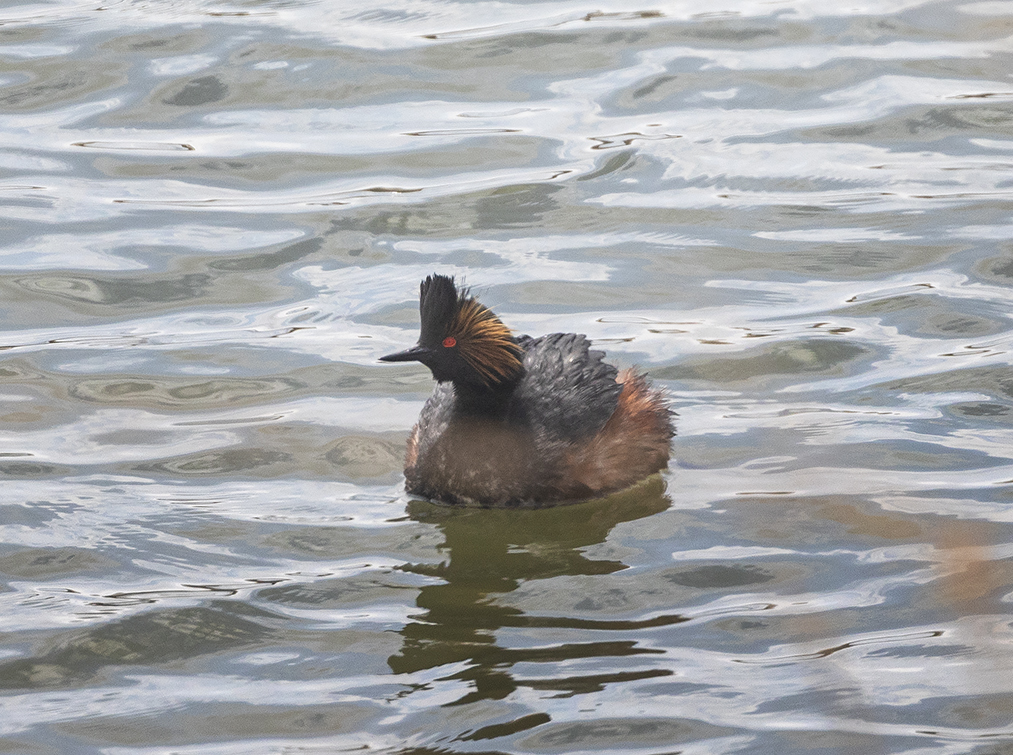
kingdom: Animalia
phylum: Chordata
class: Aves
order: Podicipediformes
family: Podicipedidae
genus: Podiceps
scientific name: Podiceps nigricollis
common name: Black-necked grebe
